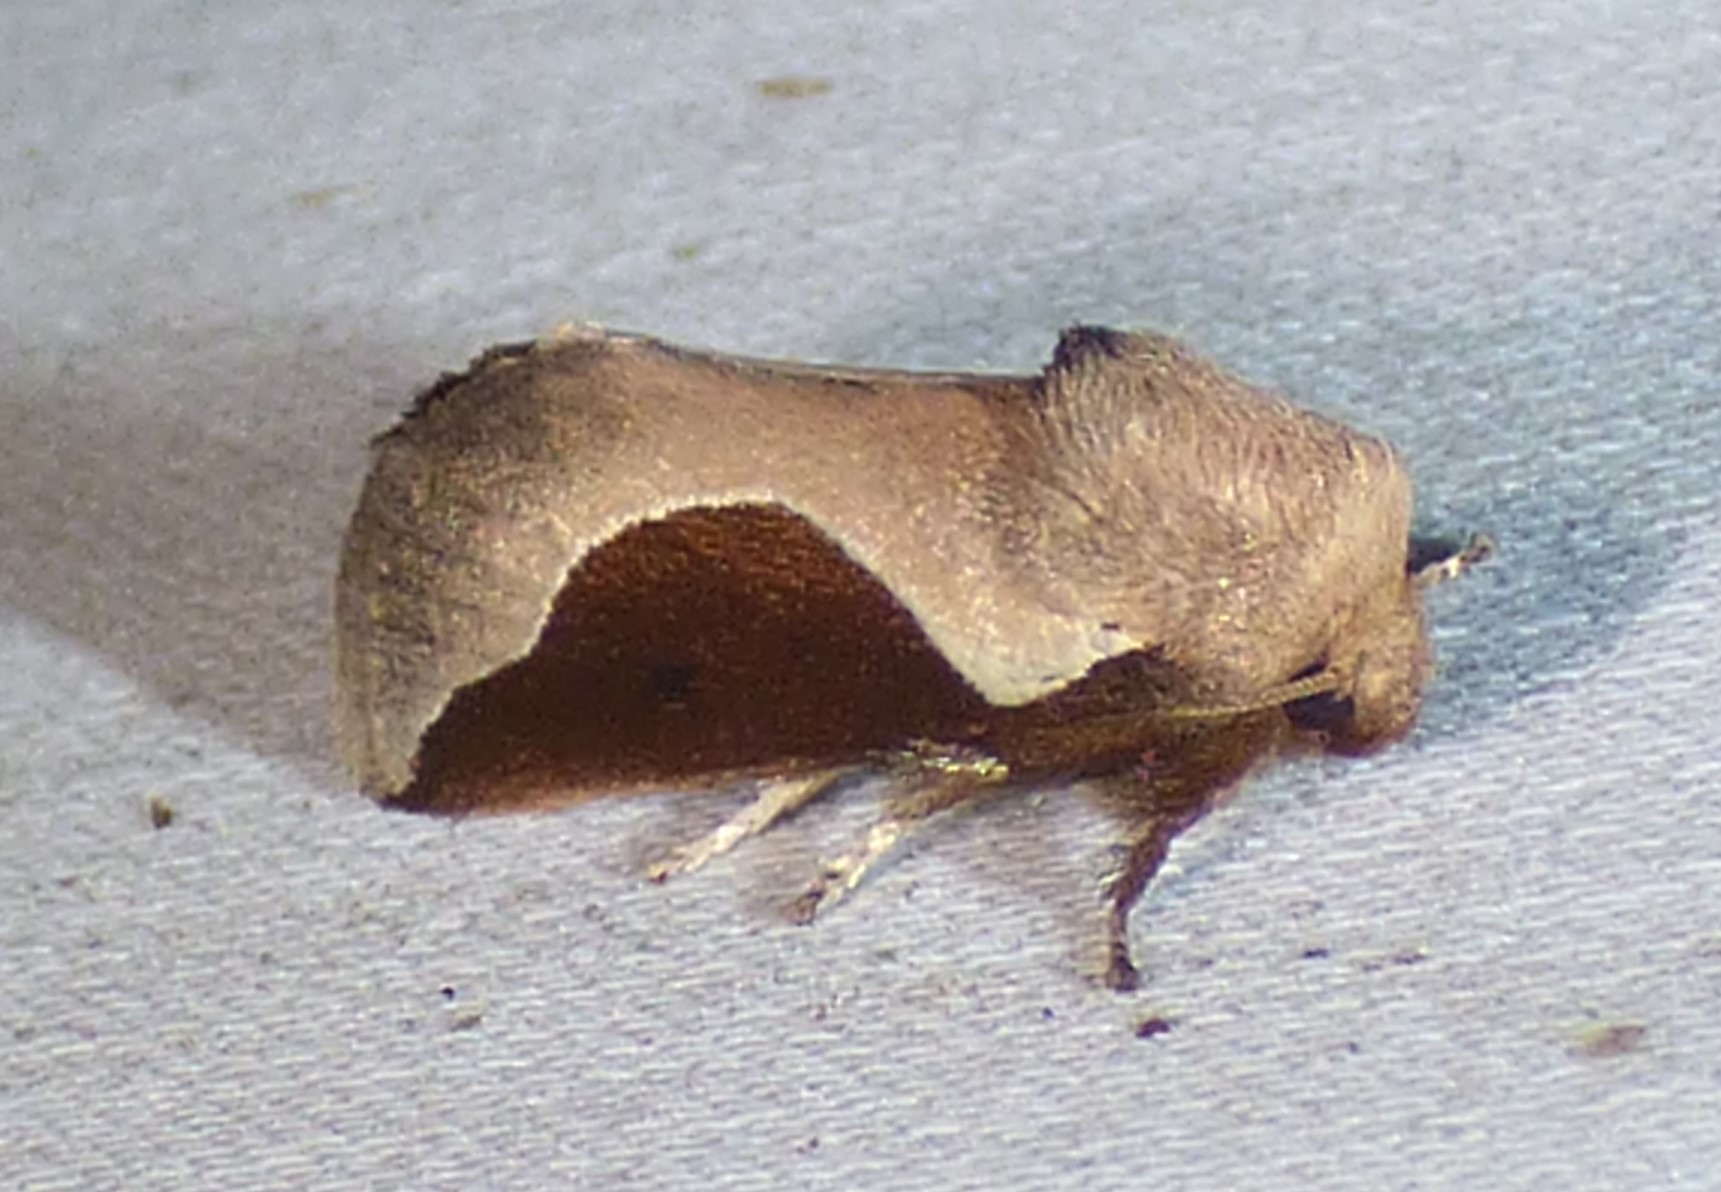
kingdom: Animalia
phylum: Arthropoda
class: Insecta
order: Lepidoptera
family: Limacodidae
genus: Prolimacodes
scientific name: Prolimacodes badia
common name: Skiff moth
